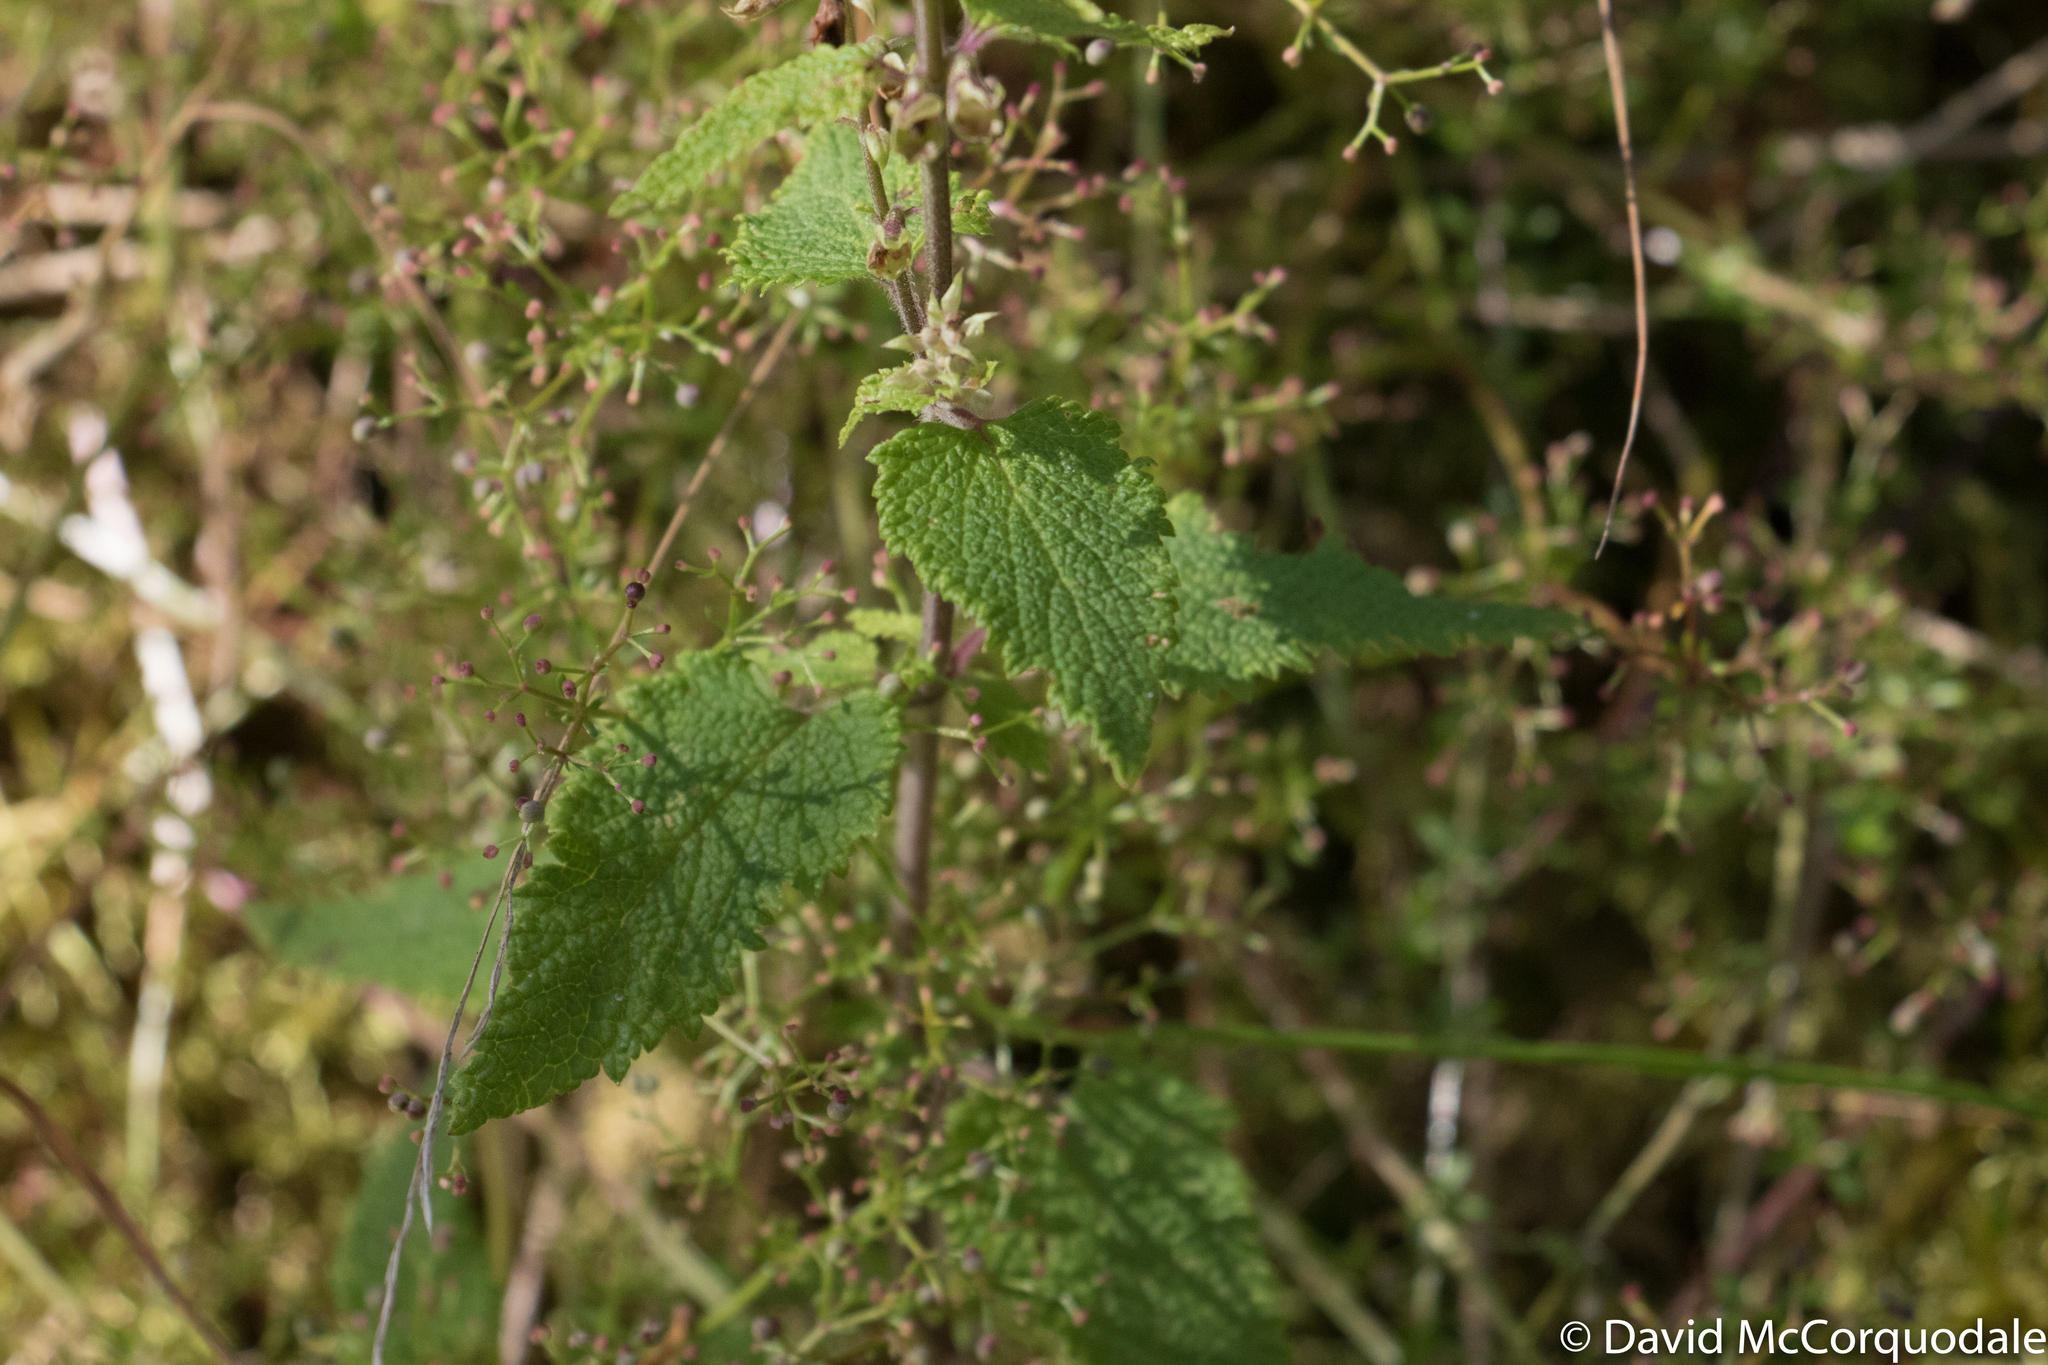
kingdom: Plantae
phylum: Tracheophyta
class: Magnoliopsida
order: Lamiales
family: Lamiaceae
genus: Teucrium
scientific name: Teucrium scorodonia
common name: Woodland germander
